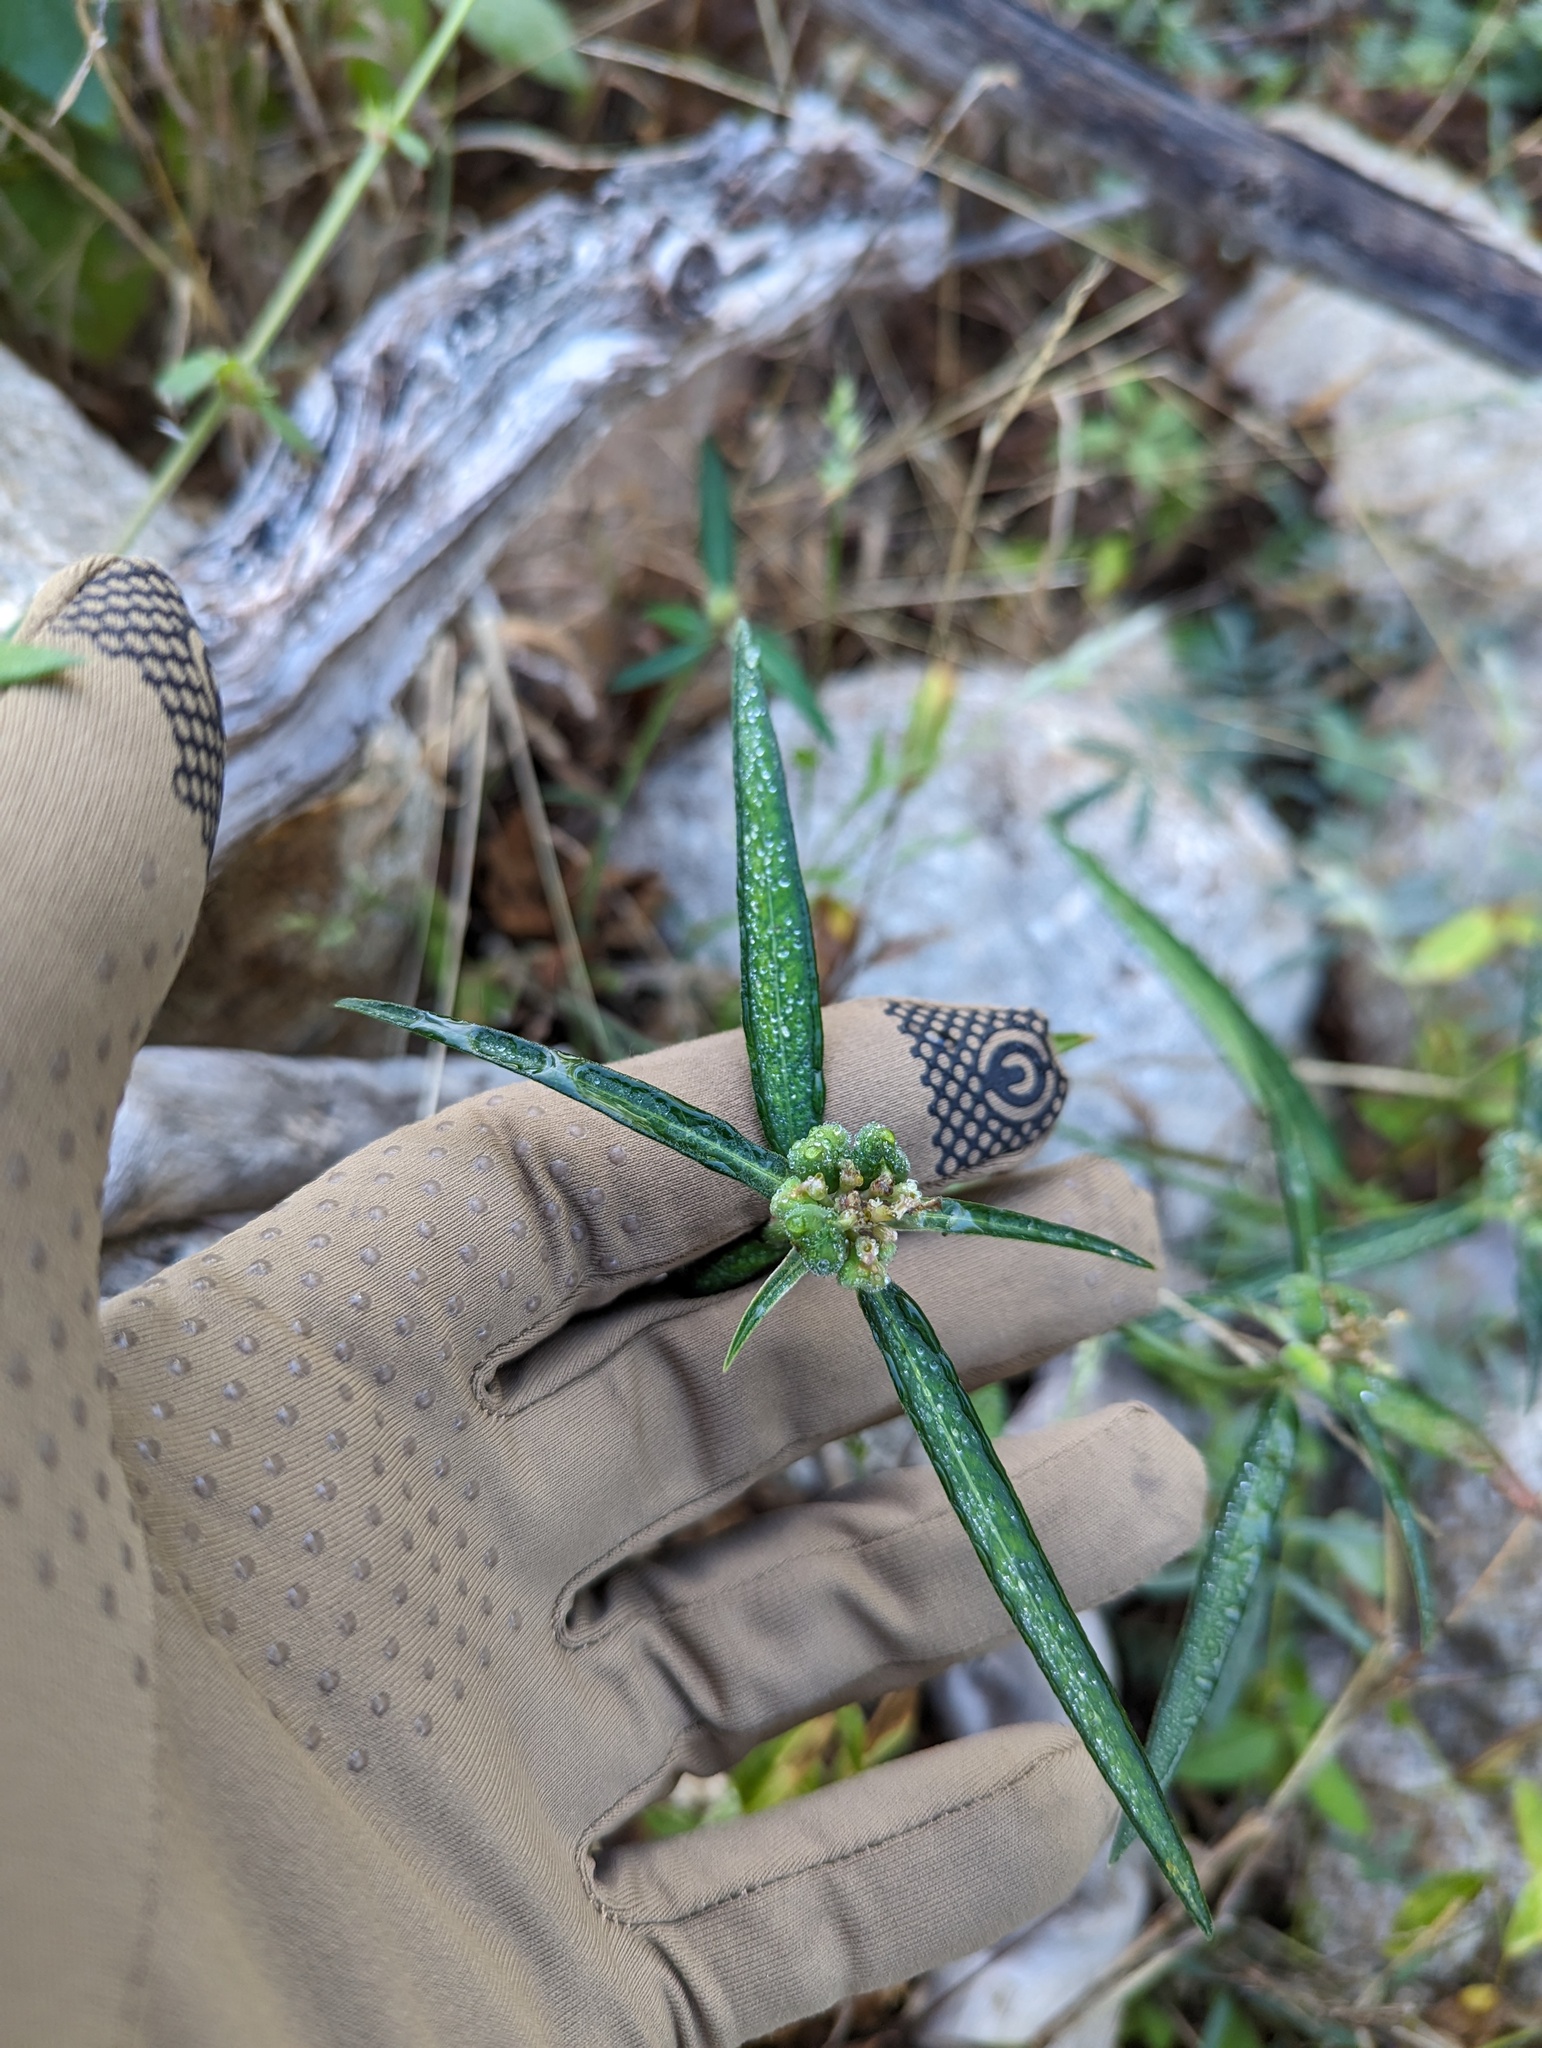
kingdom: Plantae
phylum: Tracheophyta
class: Magnoliopsida
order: Malpighiales
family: Euphorbiaceae
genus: Euphorbia
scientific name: Euphorbia heterophylla
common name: Mexican fireplant
